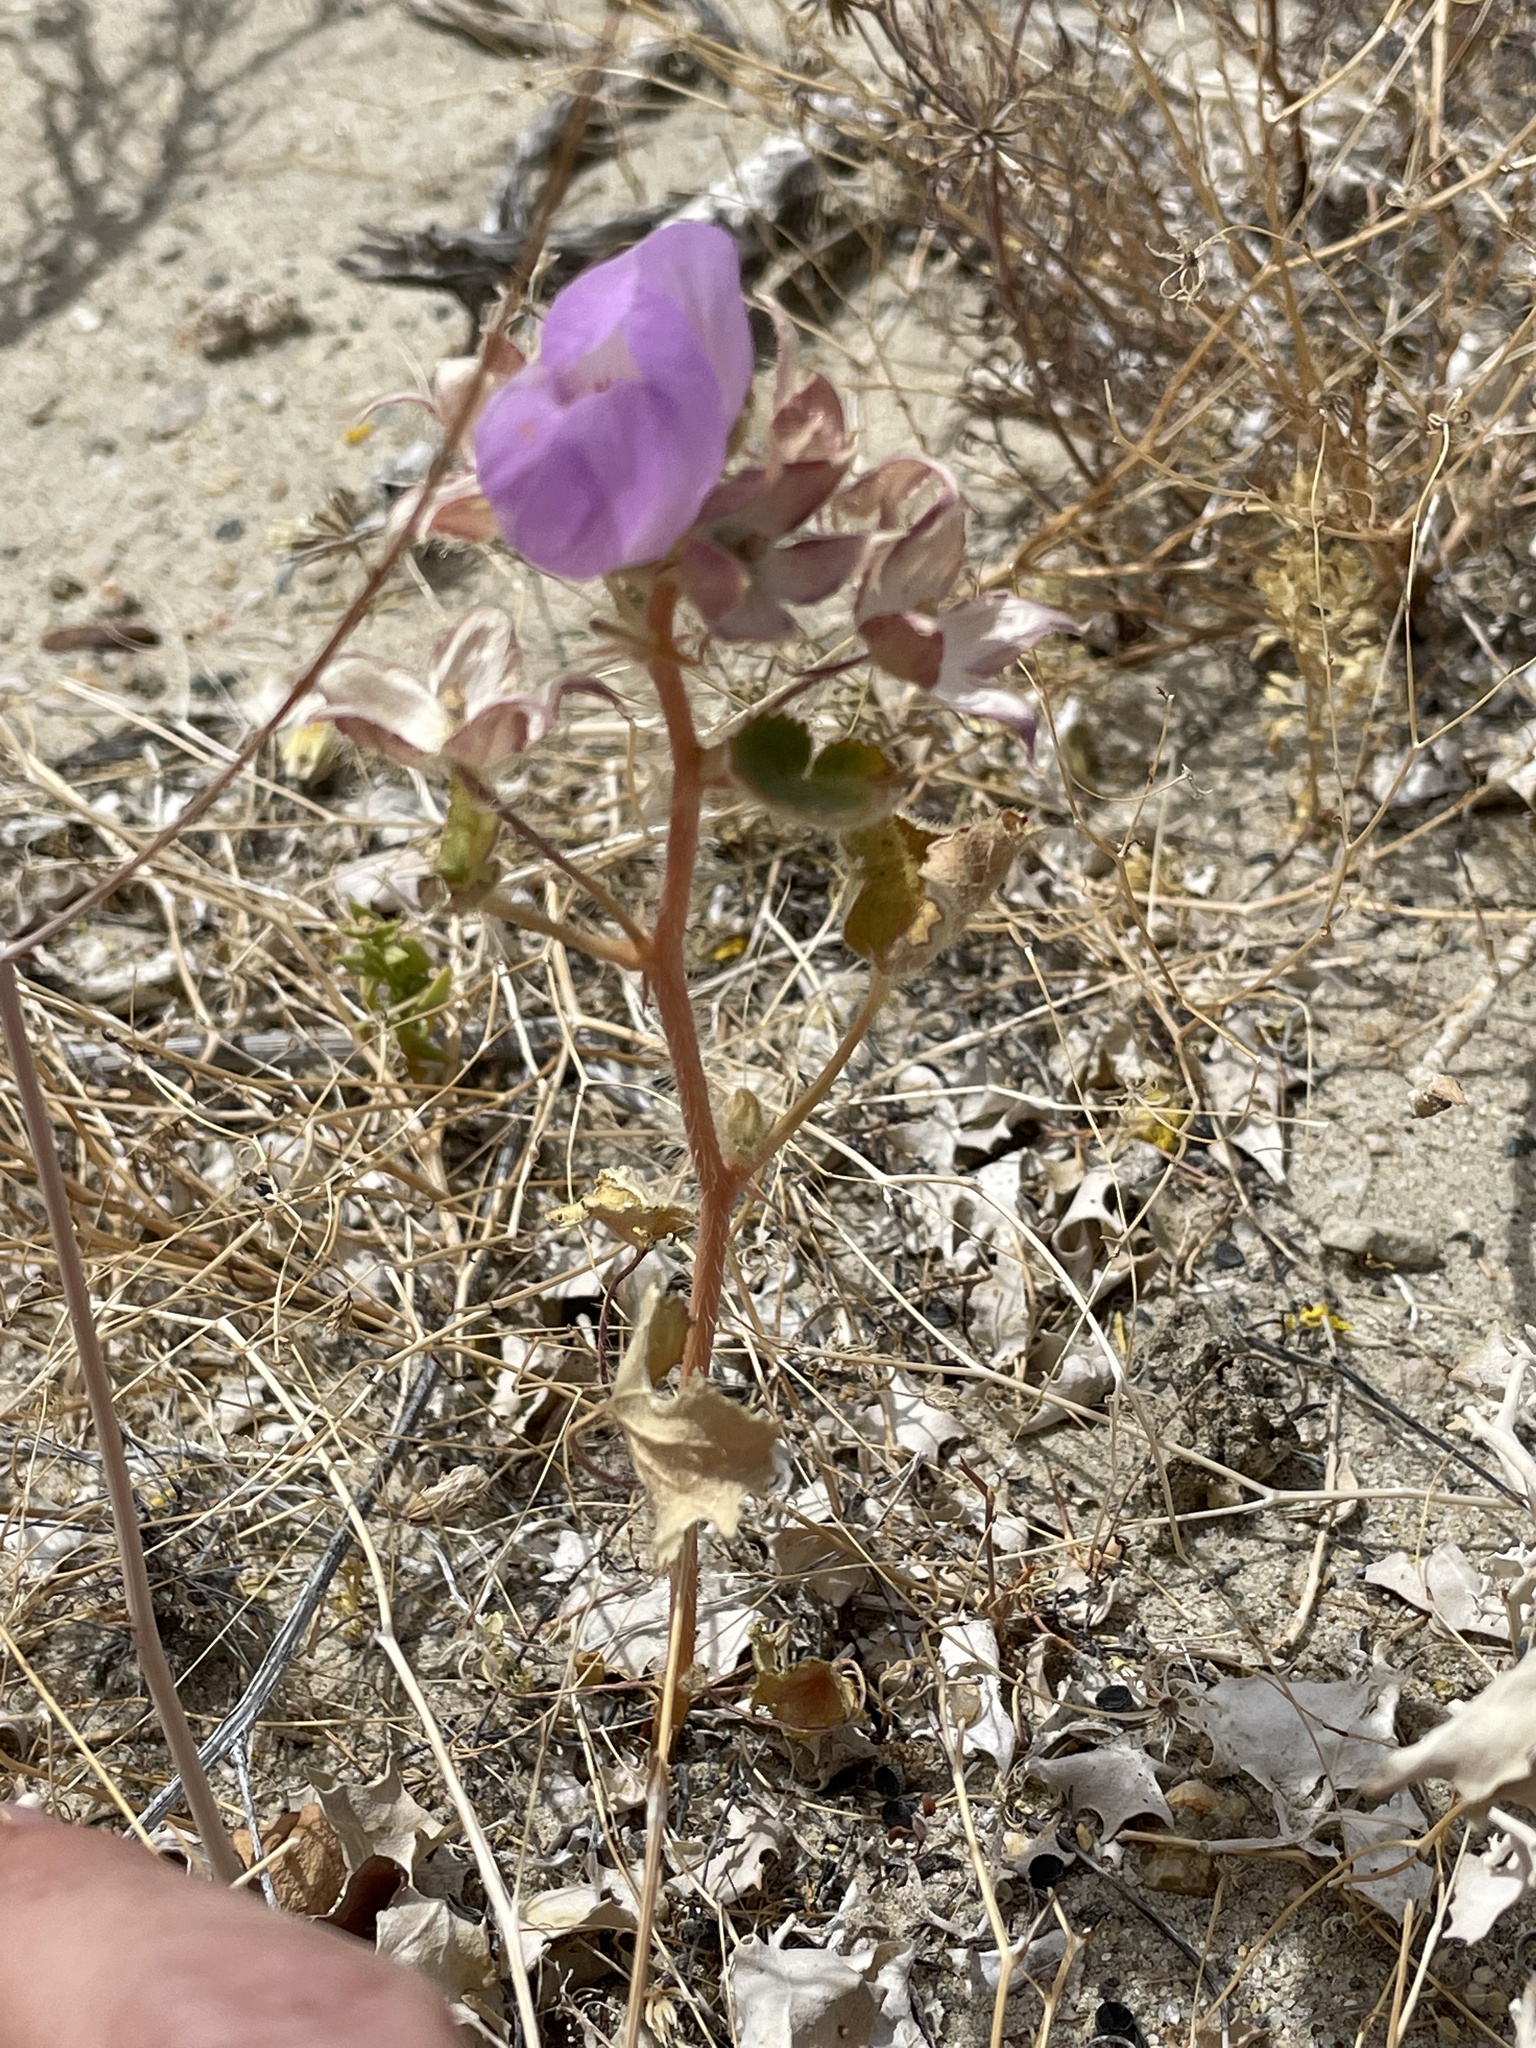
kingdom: Plantae
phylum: Tracheophyta
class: Magnoliopsida
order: Malvales
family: Malvaceae
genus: Eremalche
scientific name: Eremalche rotundifolia
